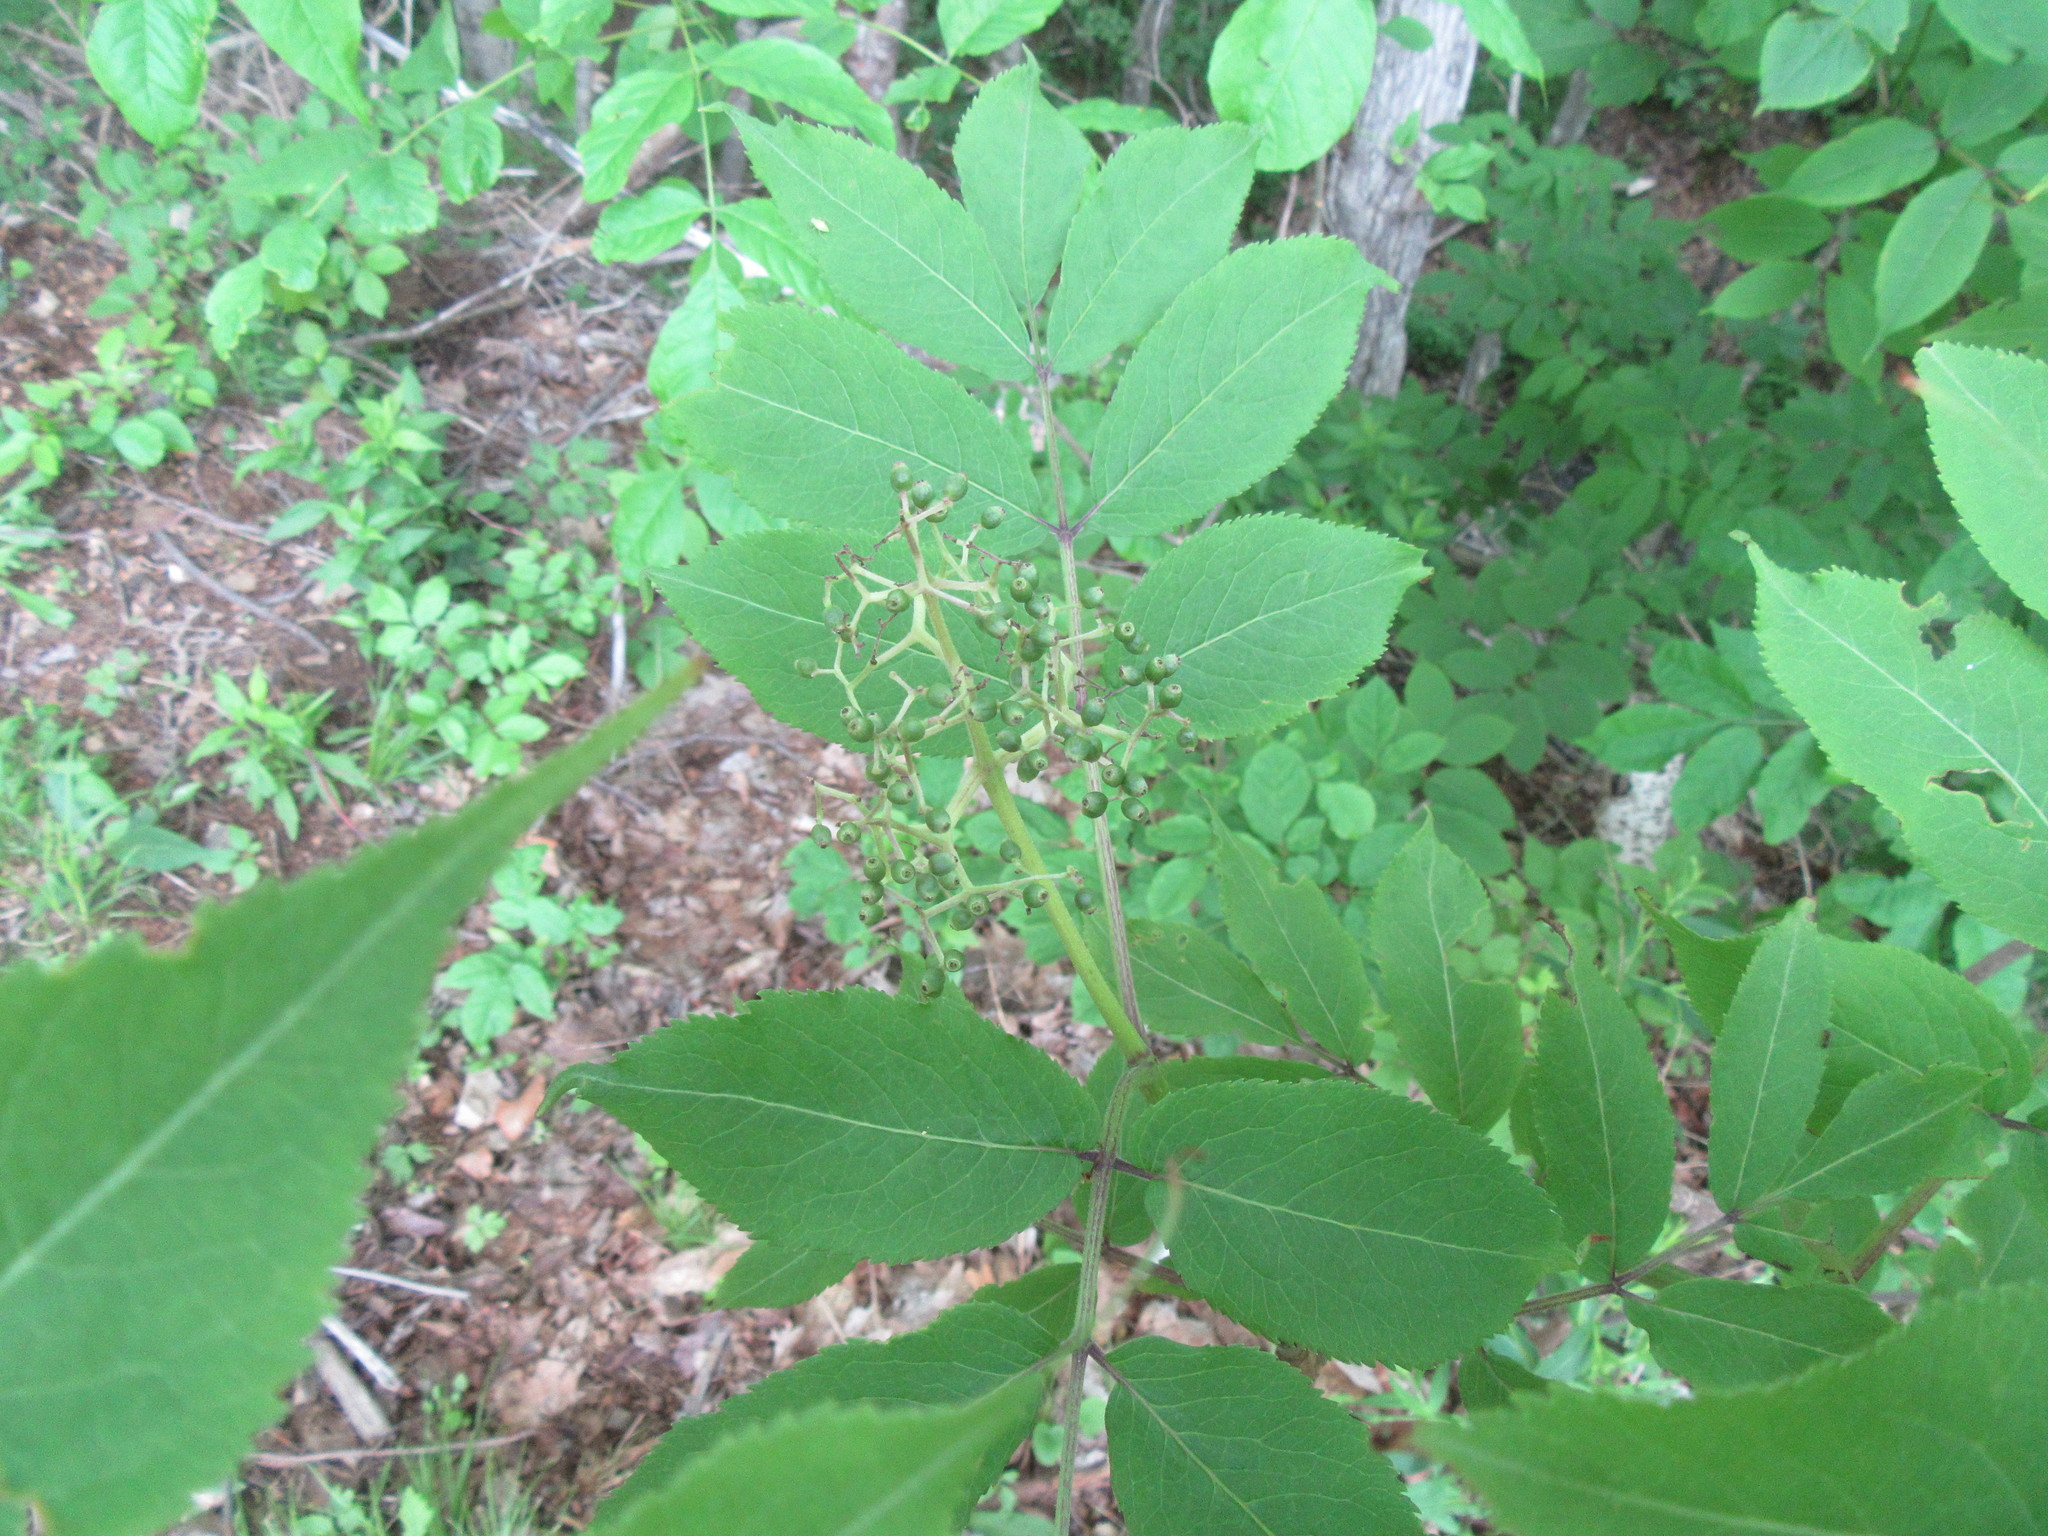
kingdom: Plantae
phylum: Tracheophyta
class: Magnoliopsida
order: Dipsacales
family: Viburnaceae
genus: Sambucus
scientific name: Sambucus racemosa
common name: Red-berried elder
